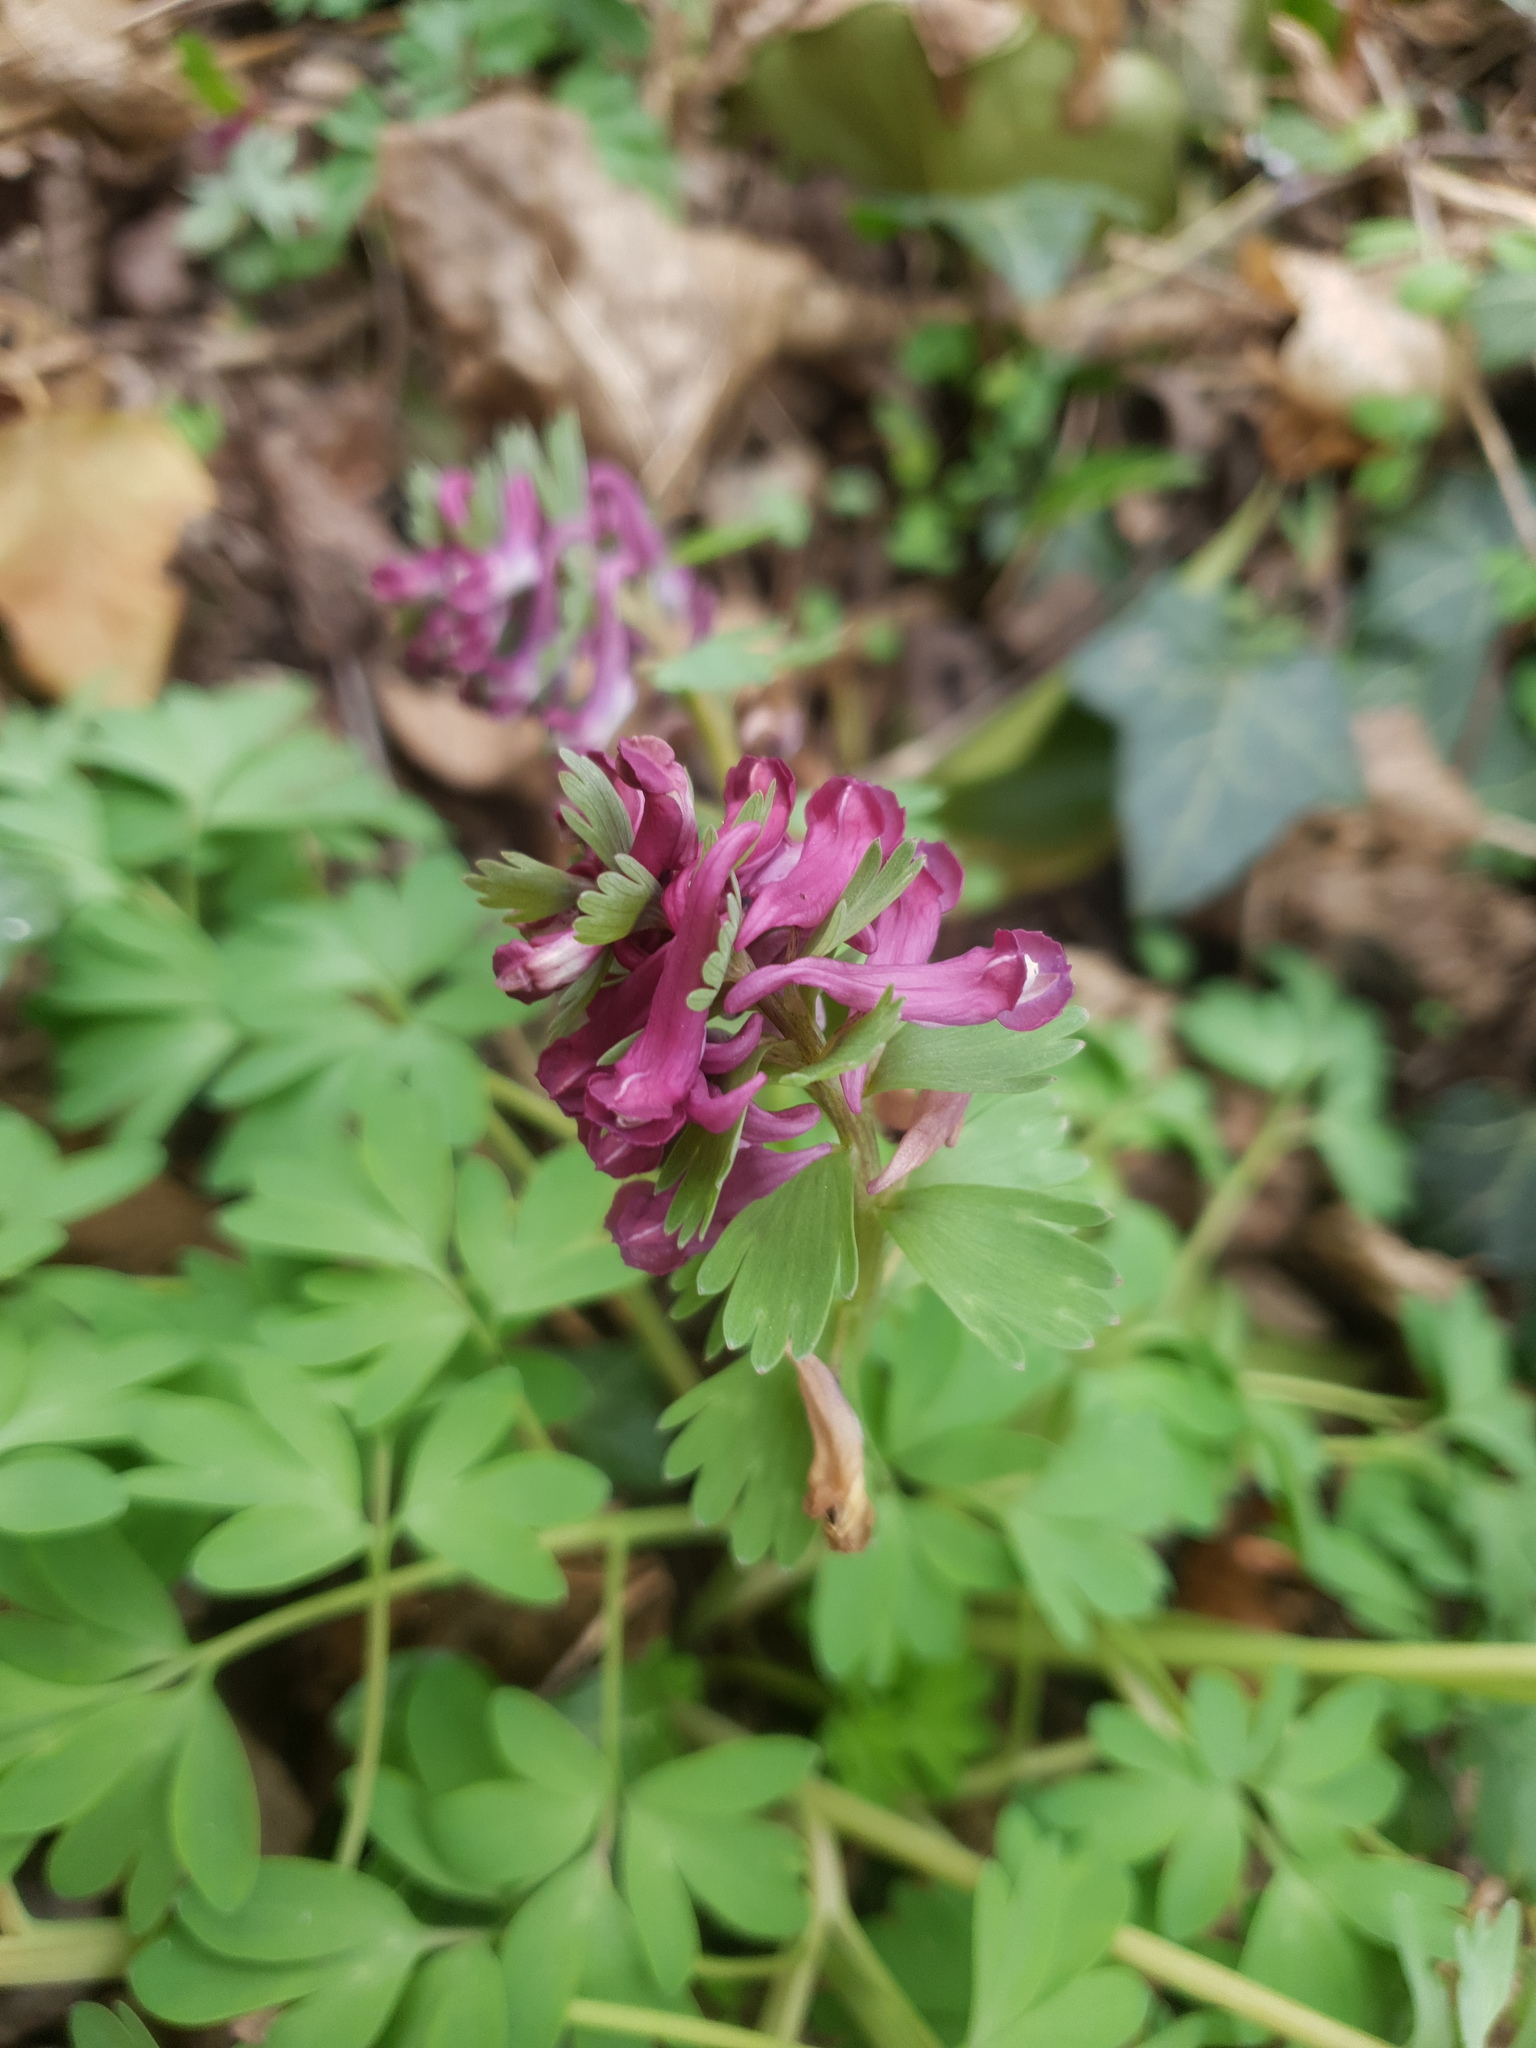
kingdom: Plantae
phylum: Tracheophyta
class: Magnoliopsida
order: Ranunculales
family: Papaveraceae
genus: Corydalis
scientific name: Corydalis solida
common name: Bird-in-a-bush
